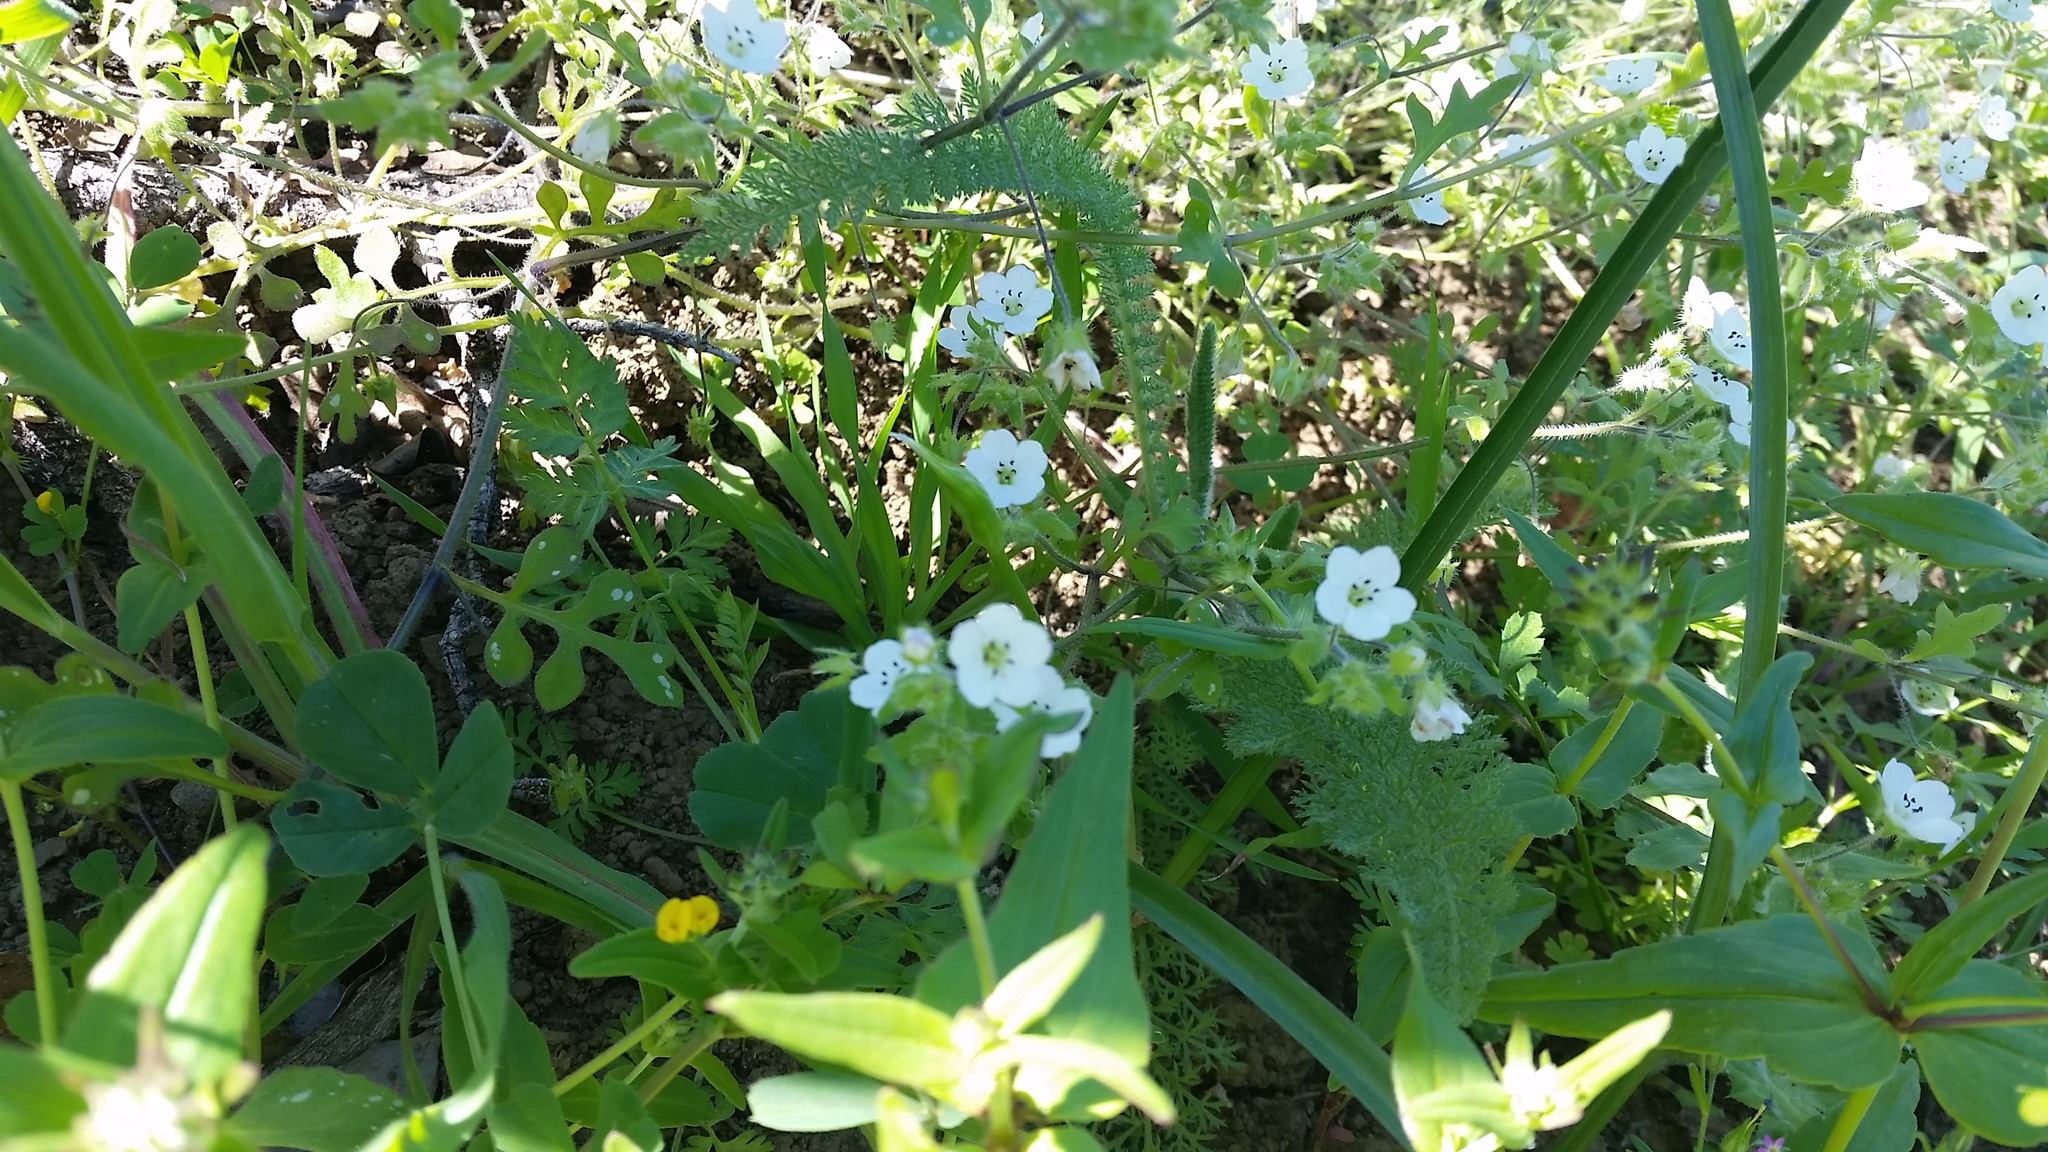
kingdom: Plantae
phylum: Tracheophyta
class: Magnoliopsida
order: Boraginales
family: Hydrophyllaceae
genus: Nemophila
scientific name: Nemophila heterophylla
